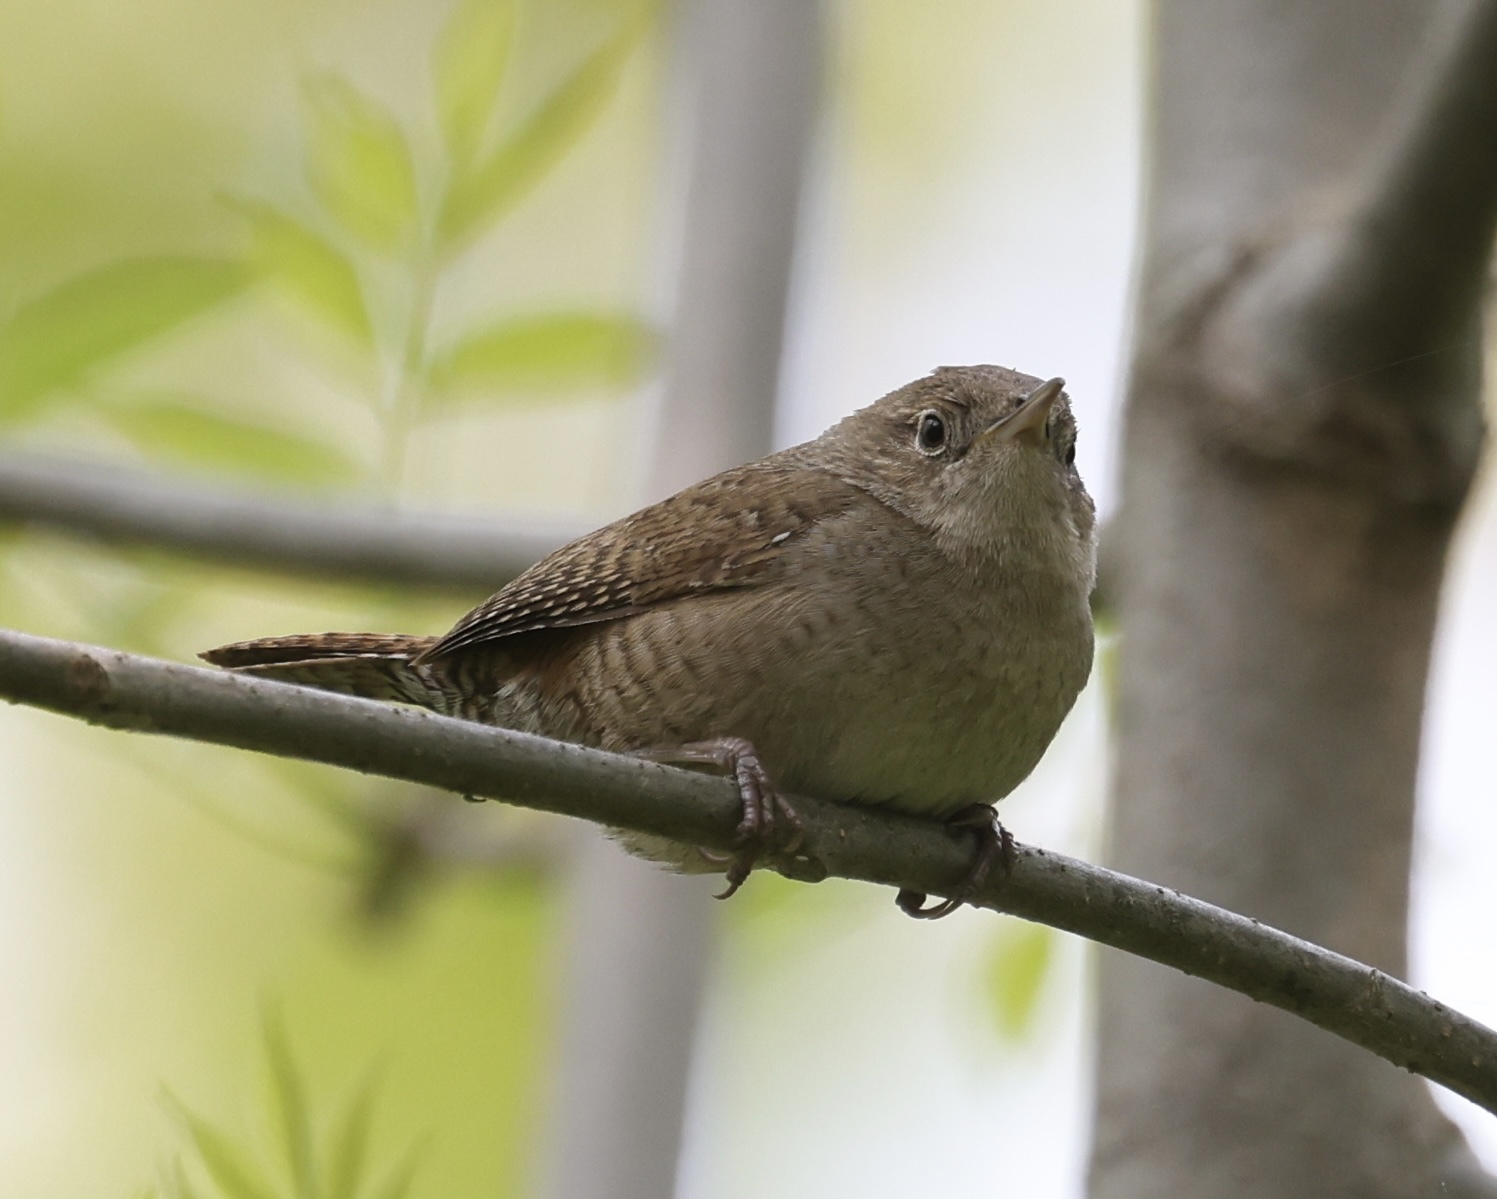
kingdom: Animalia
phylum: Chordata
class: Aves
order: Passeriformes
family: Troglodytidae
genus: Troglodytes
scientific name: Troglodytes aedon
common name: House wren
